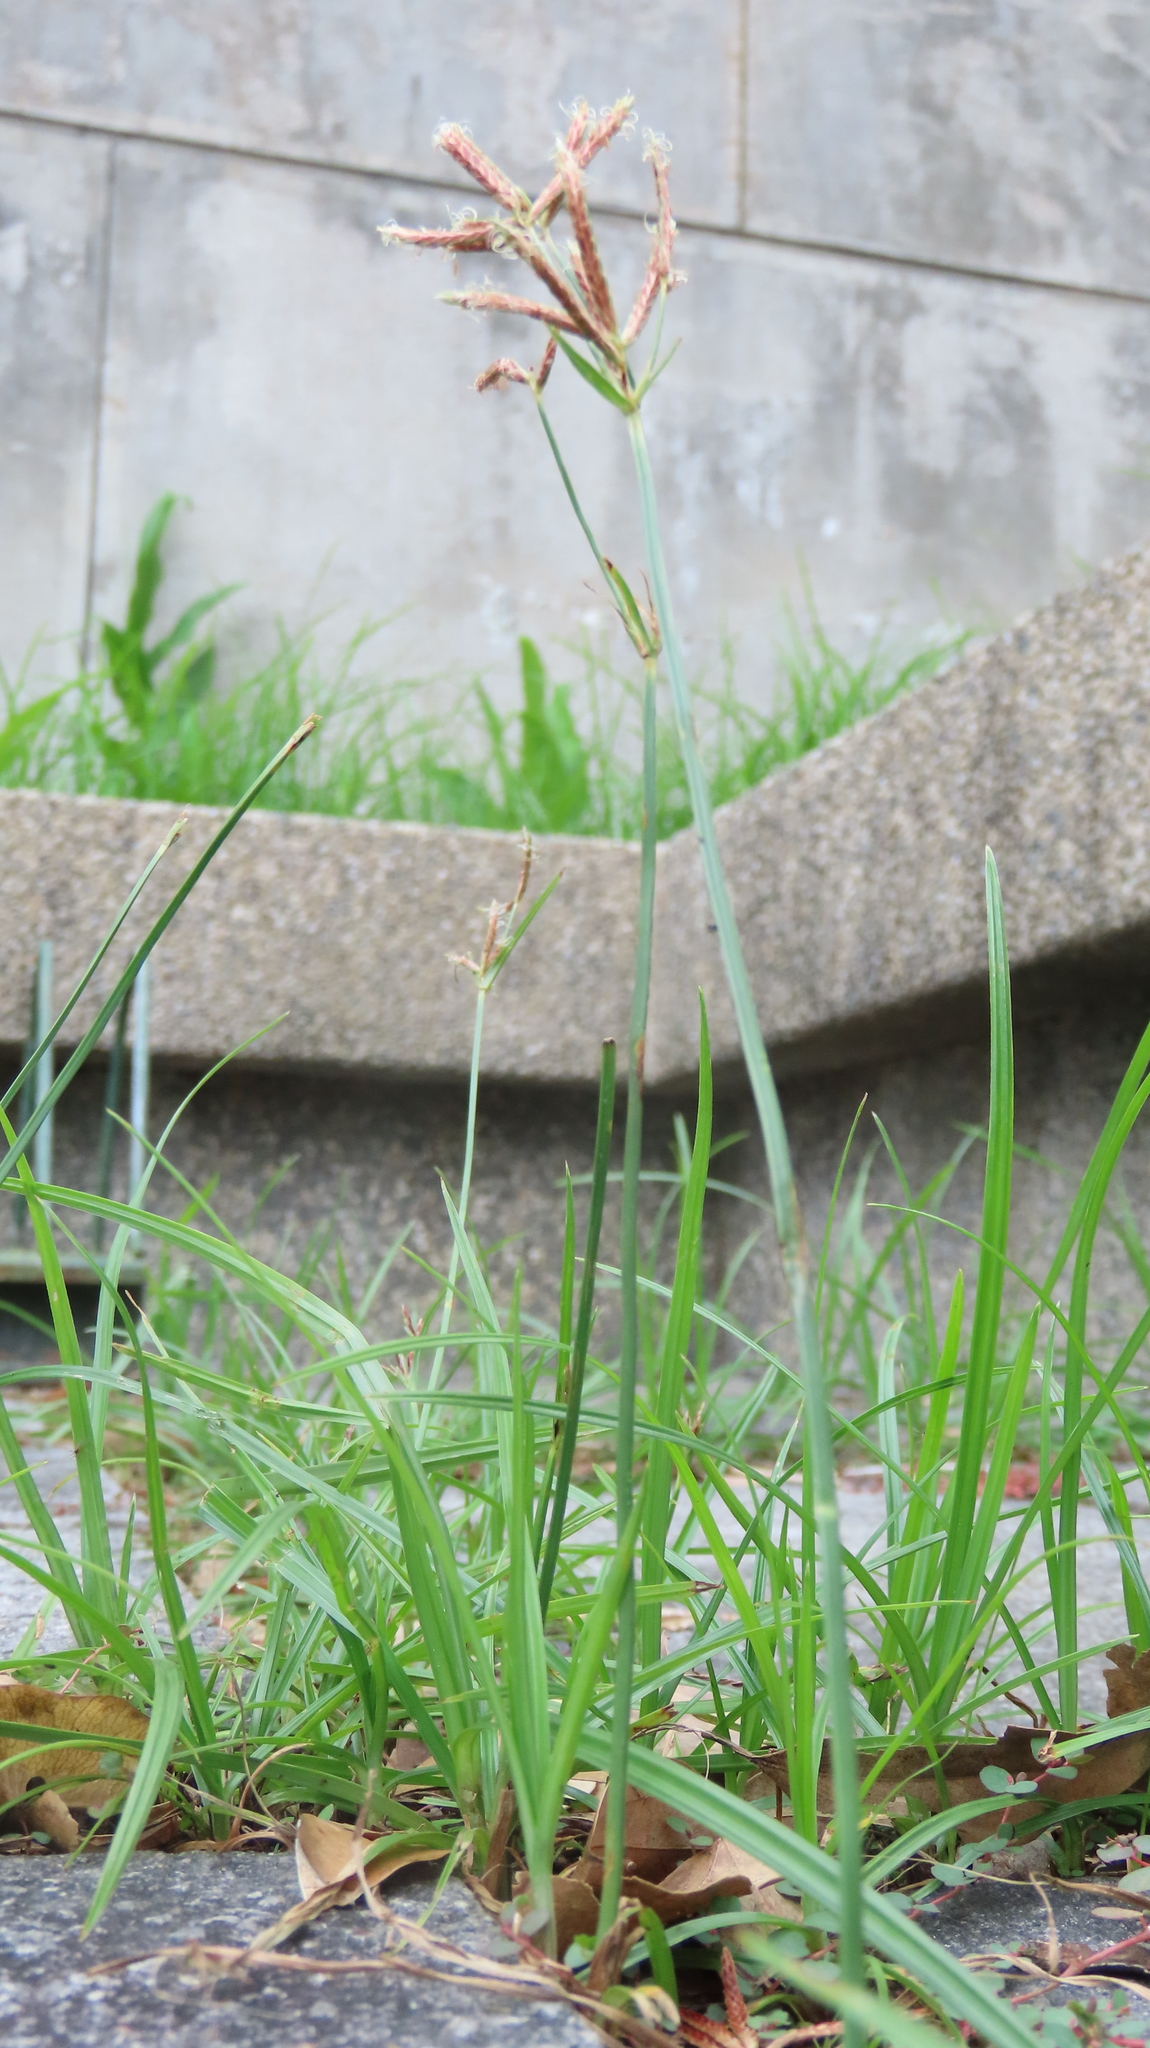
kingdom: Plantae
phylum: Tracheophyta
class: Liliopsida
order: Poales
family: Cyperaceae
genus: Cyperus
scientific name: Cyperus rotundus
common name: Nutgrass
